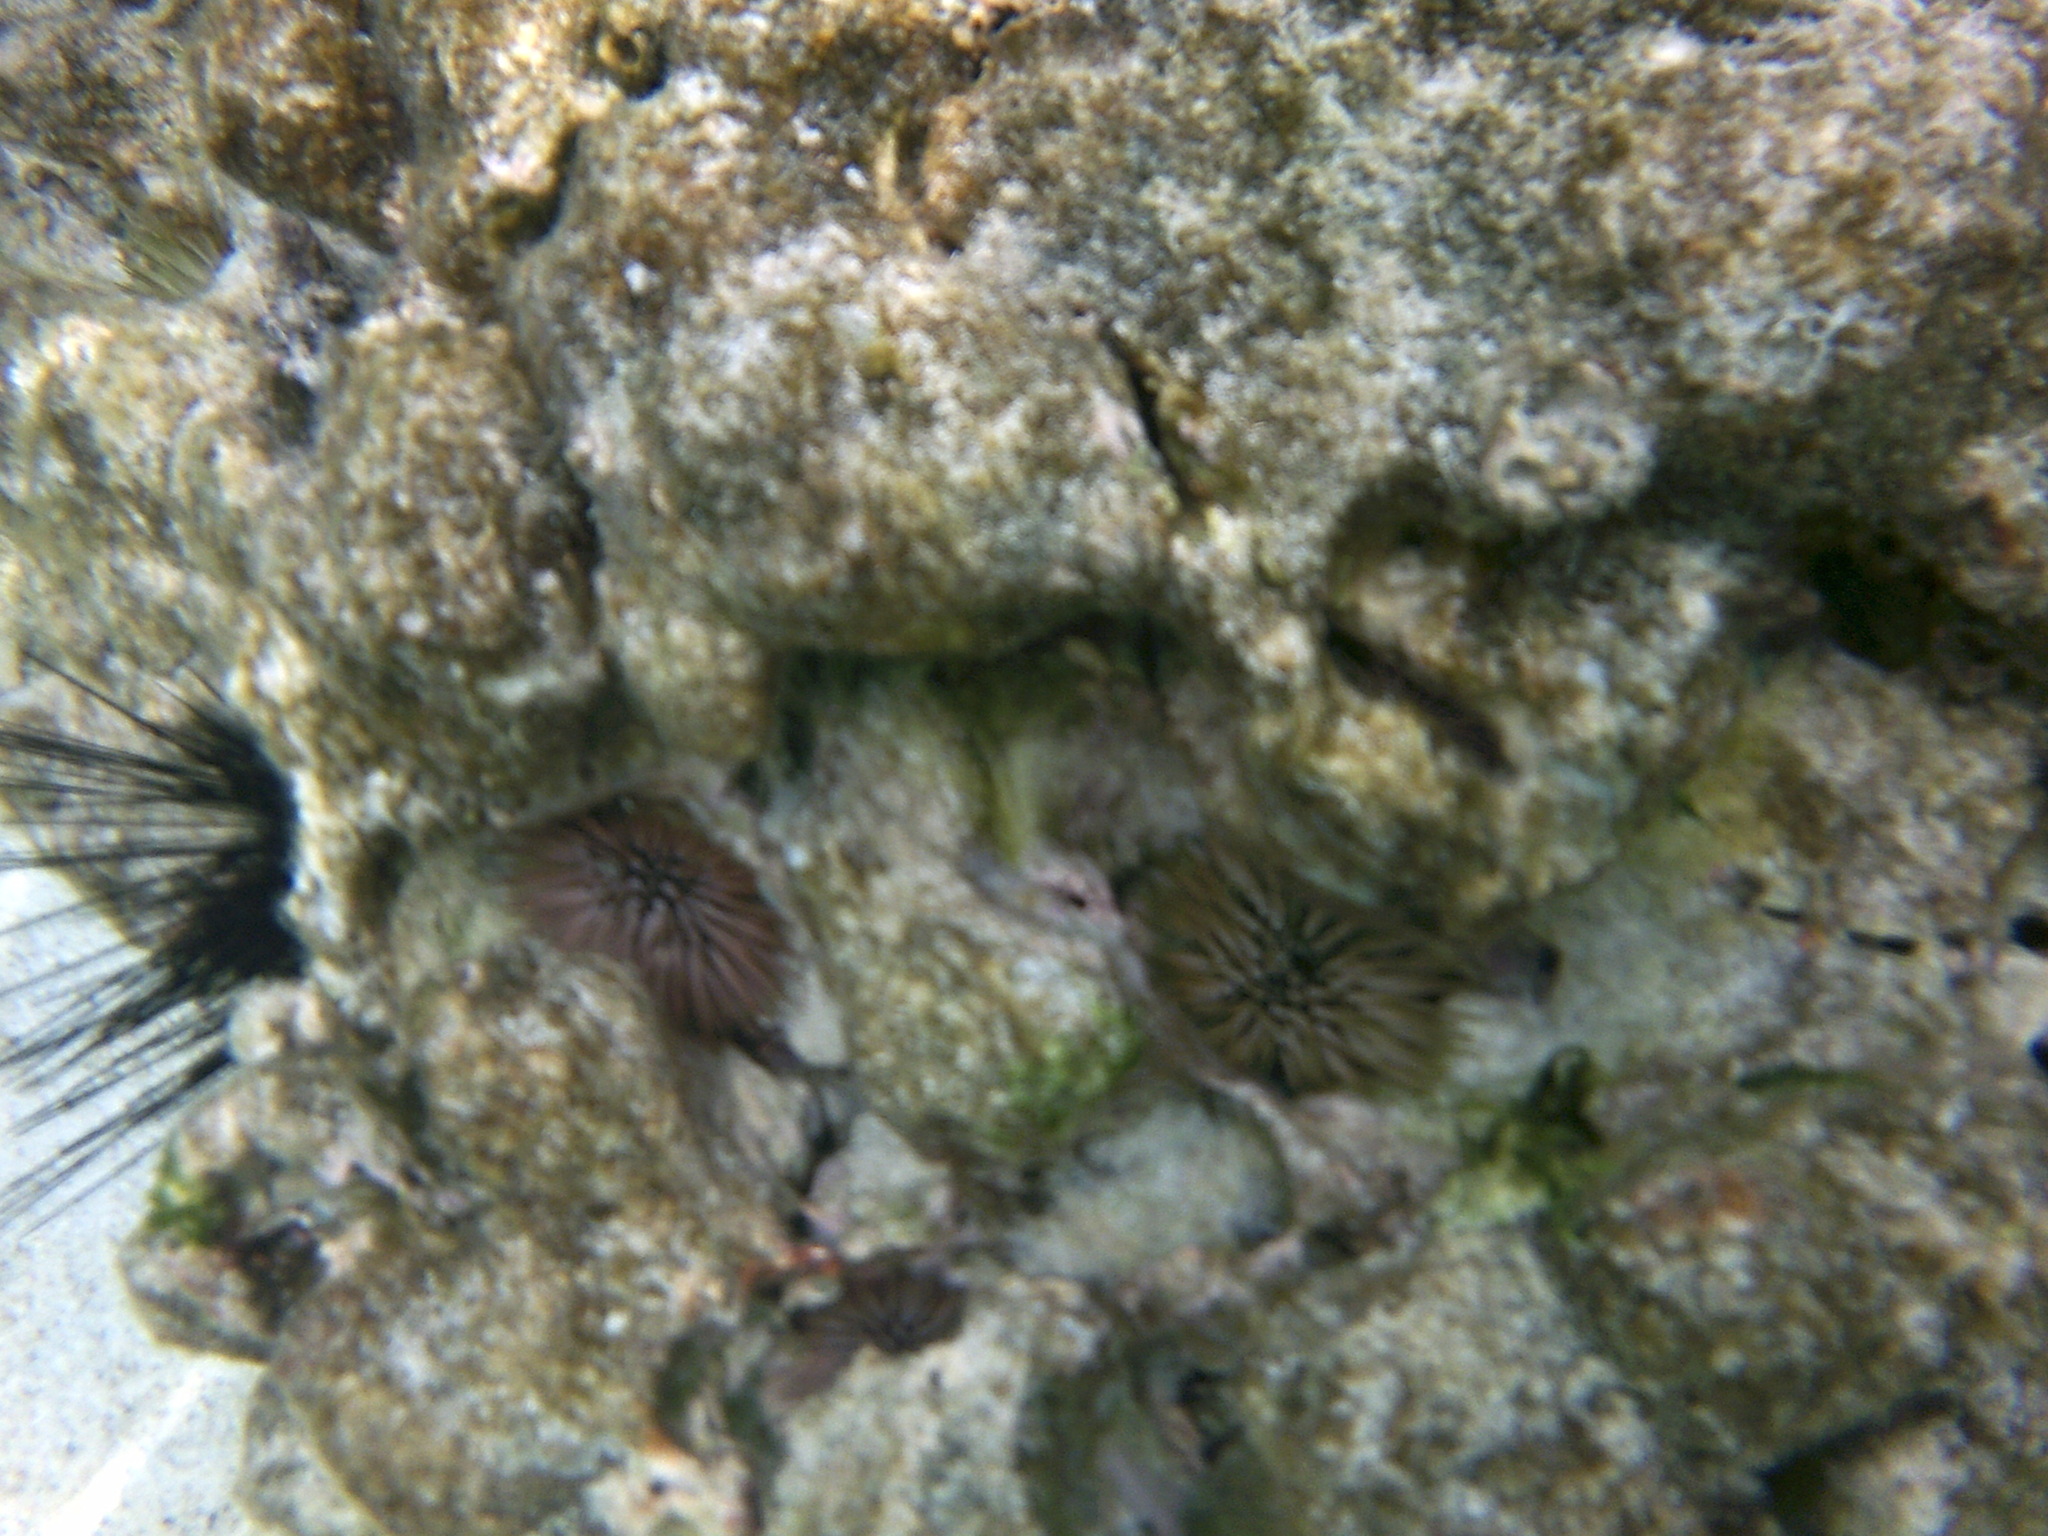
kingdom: Animalia
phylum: Echinodermata
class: Echinoidea
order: Camarodonta
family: Echinometridae
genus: Echinometra
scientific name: Echinometra mathaei
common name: Rock-boring urchin
